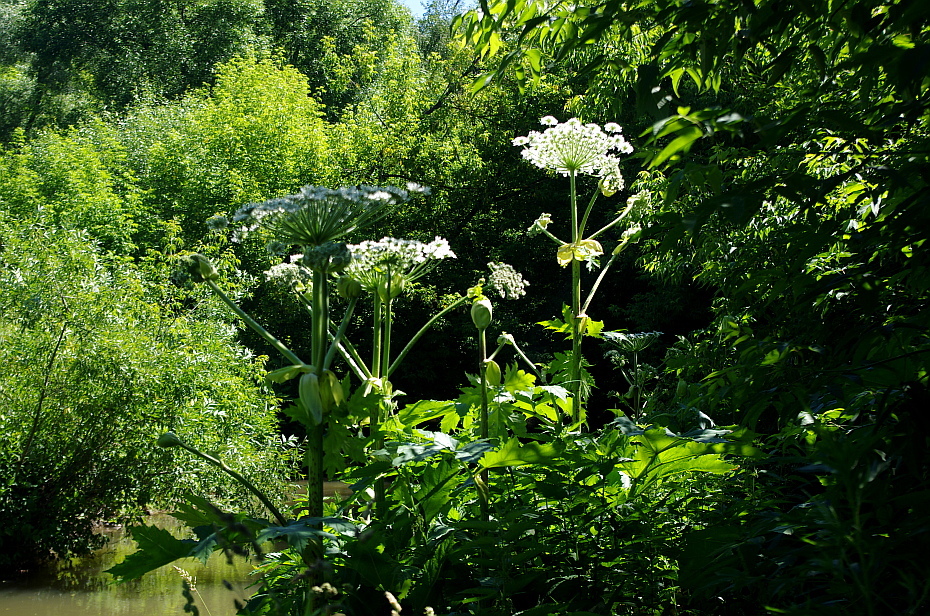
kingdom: Plantae
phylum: Tracheophyta
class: Magnoliopsida
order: Apiales
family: Apiaceae
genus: Heracleum
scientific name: Heracleum sosnowskyi
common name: Sosnowsky's hogweed
